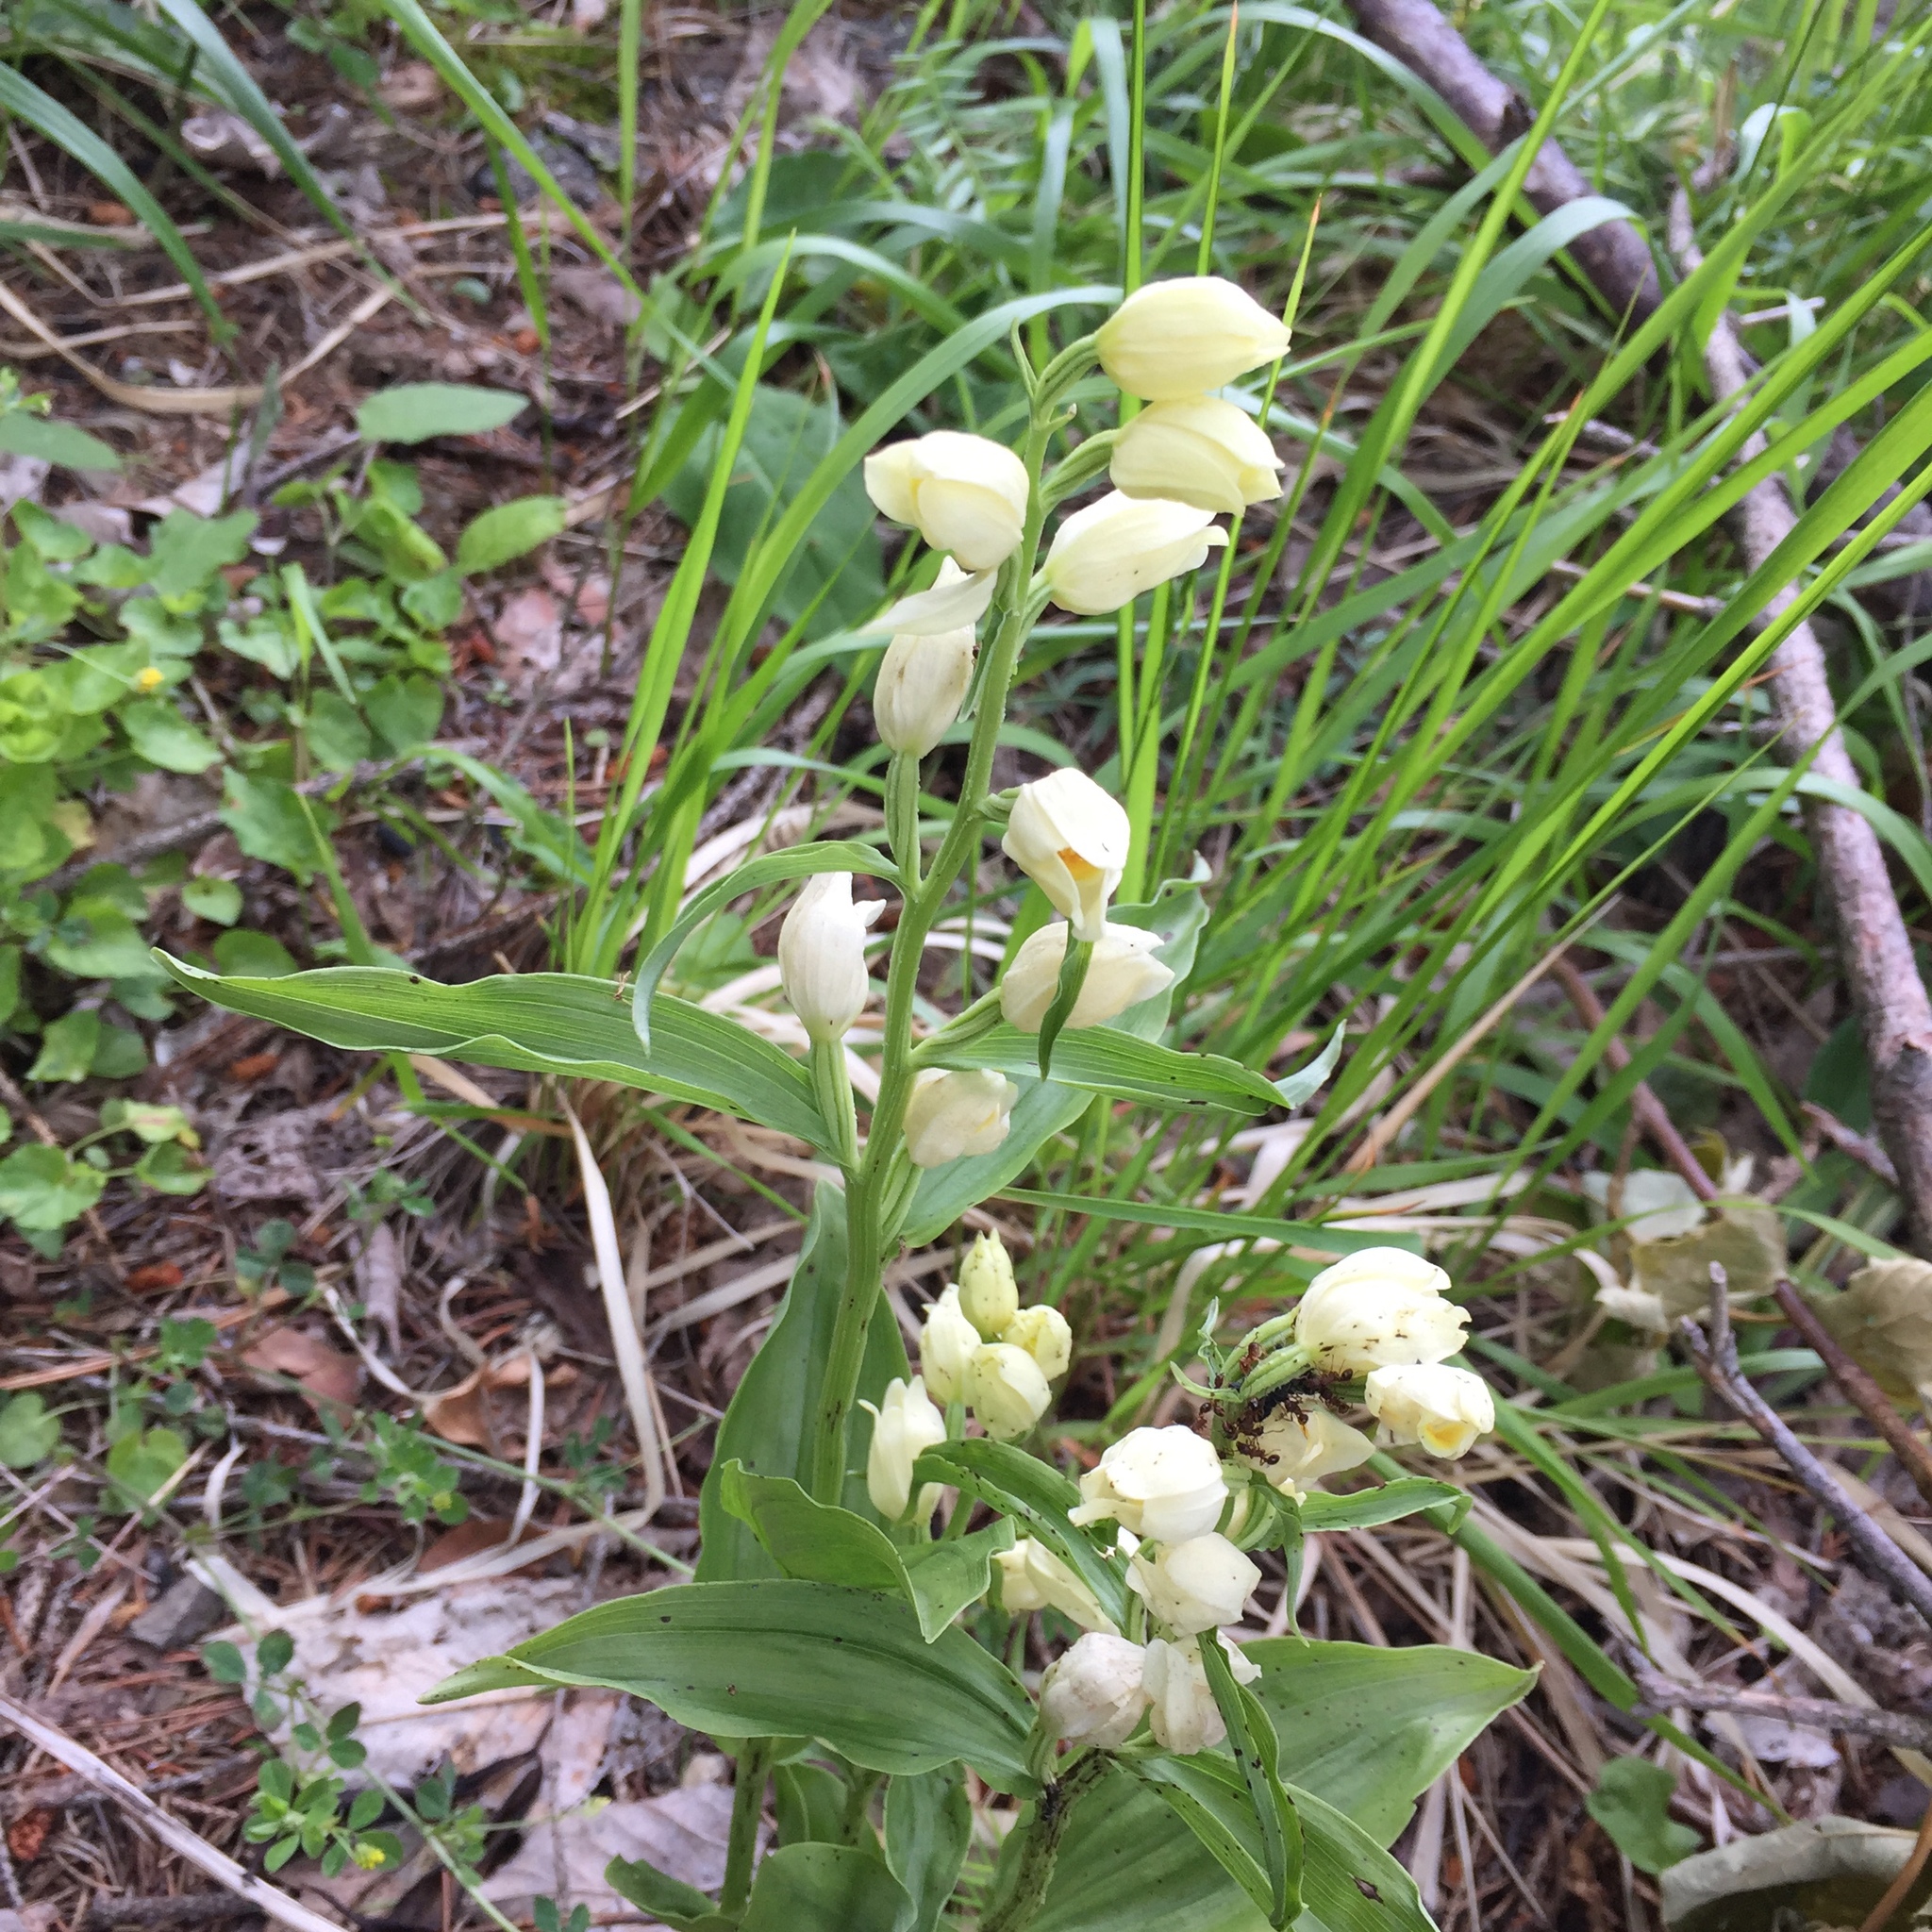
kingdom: Plantae
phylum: Tracheophyta
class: Liliopsida
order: Asparagales
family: Orchidaceae
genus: Cephalanthera
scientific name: Cephalanthera damasonium
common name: White helleborine
